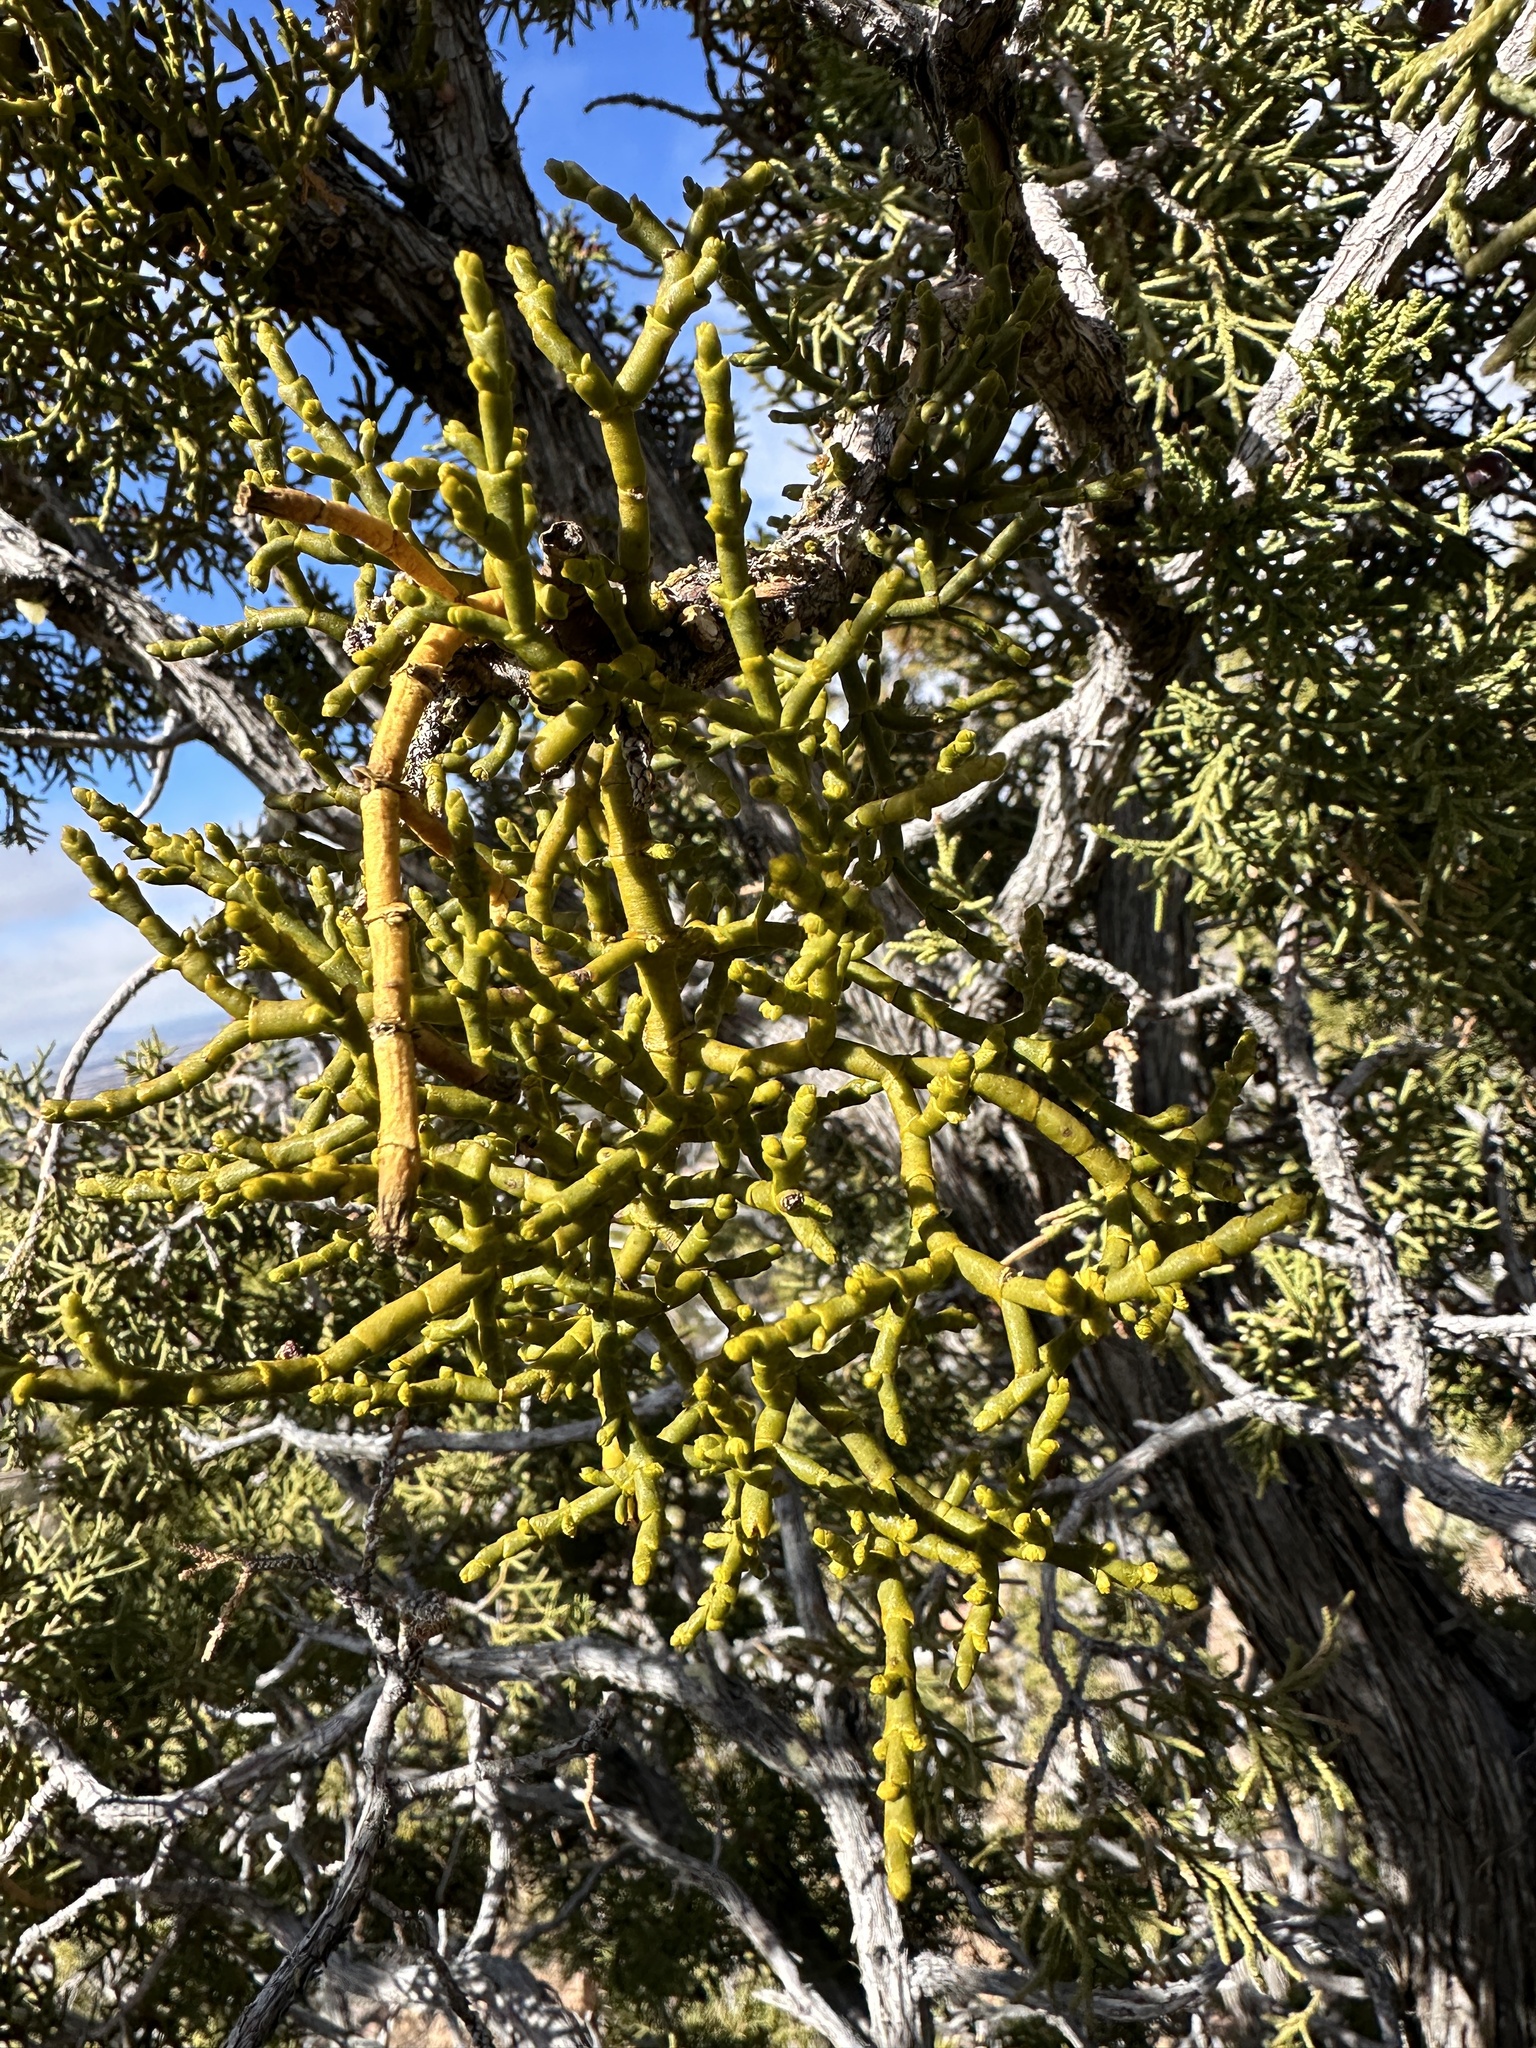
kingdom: Plantae
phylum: Tracheophyta
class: Magnoliopsida
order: Santalales
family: Viscaceae
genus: Phoradendron
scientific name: Phoradendron juniperinum
